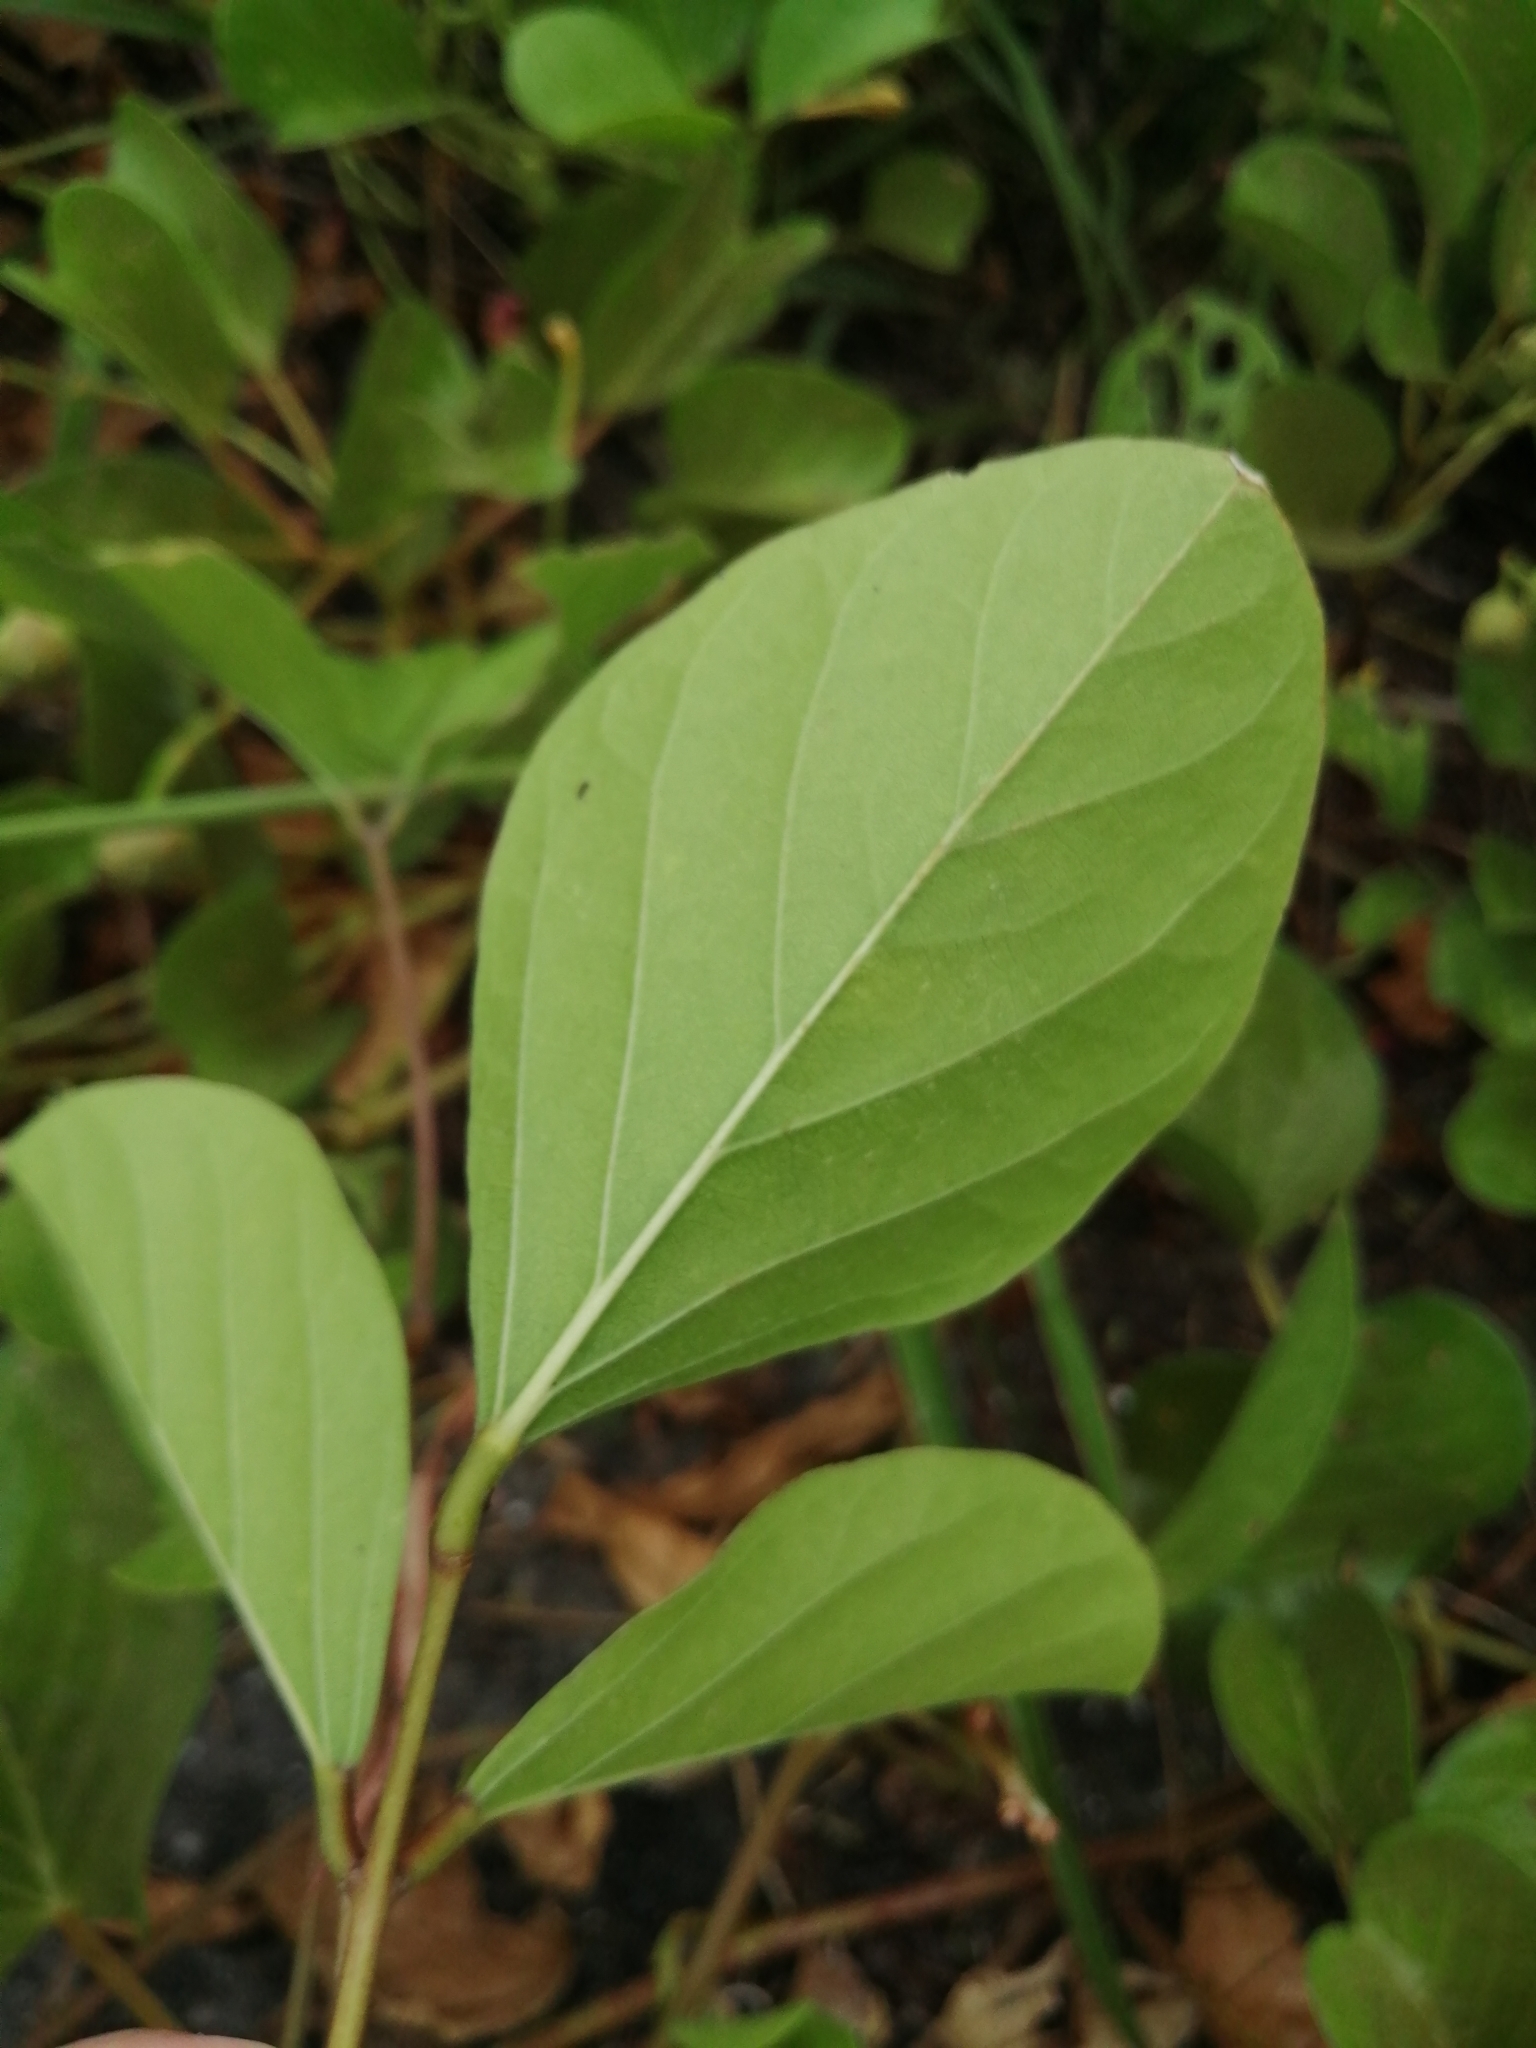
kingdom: Plantae
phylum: Tracheophyta
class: Magnoliopsida
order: Fabales
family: Fabaceae
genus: Canavalia
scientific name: Canavalia rosea
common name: Beach-bean
